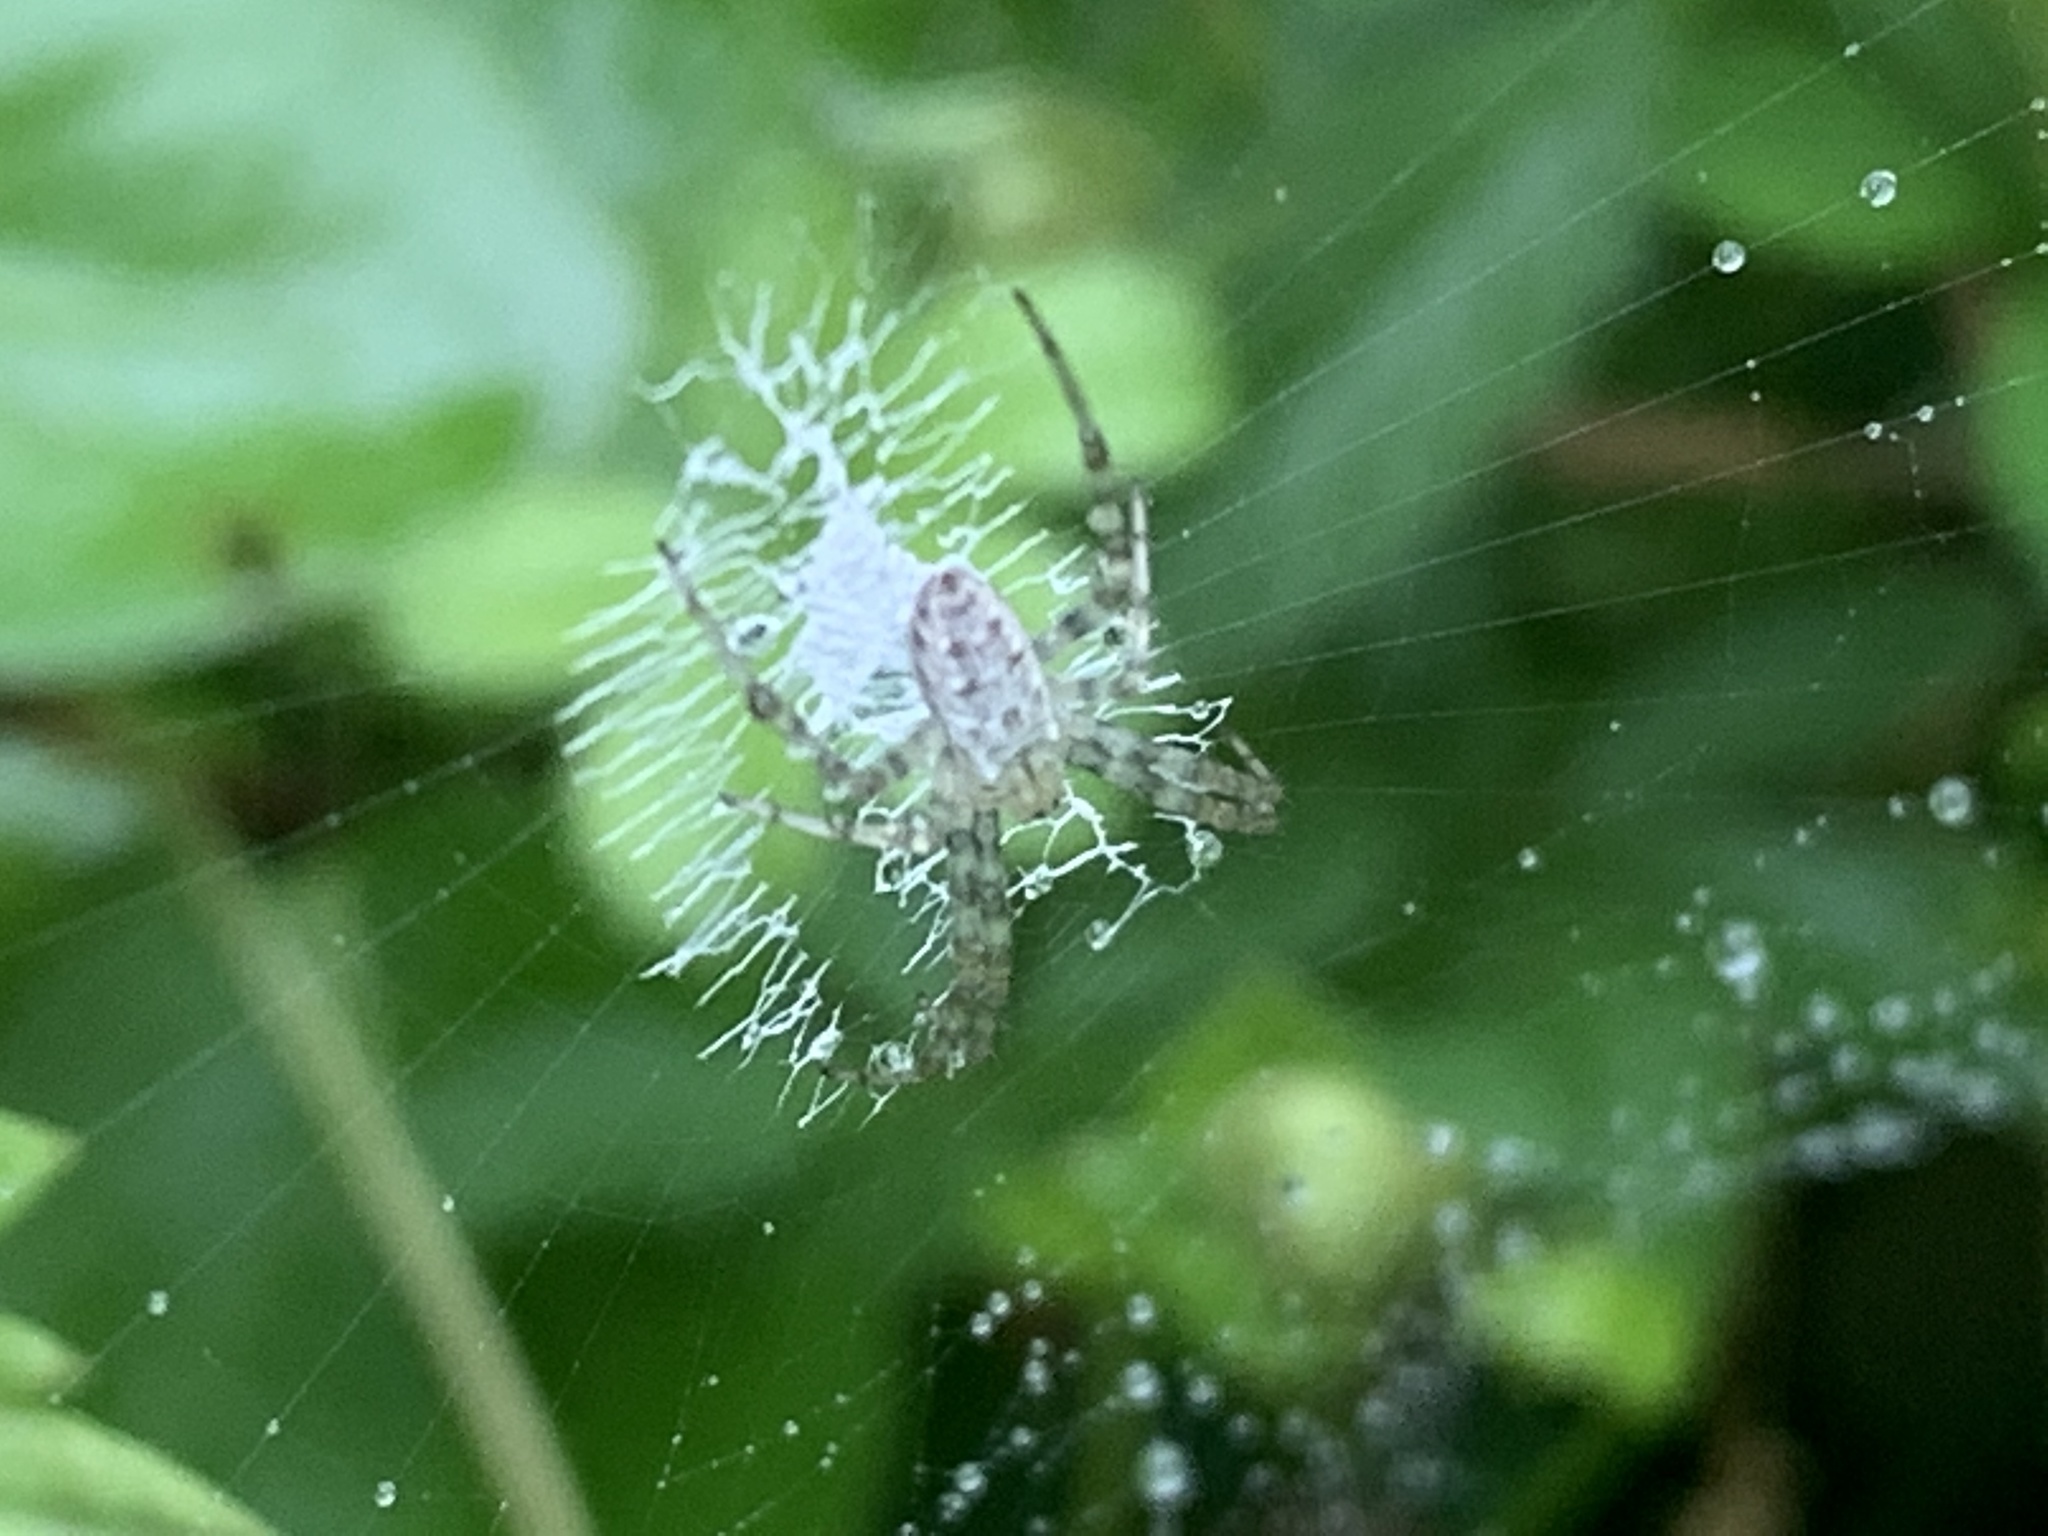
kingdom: Animalia
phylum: Arthropoda
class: Arachnida
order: Araneae
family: Araneidae
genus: Argiope
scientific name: Argiope aurantia
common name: Orb weavers
